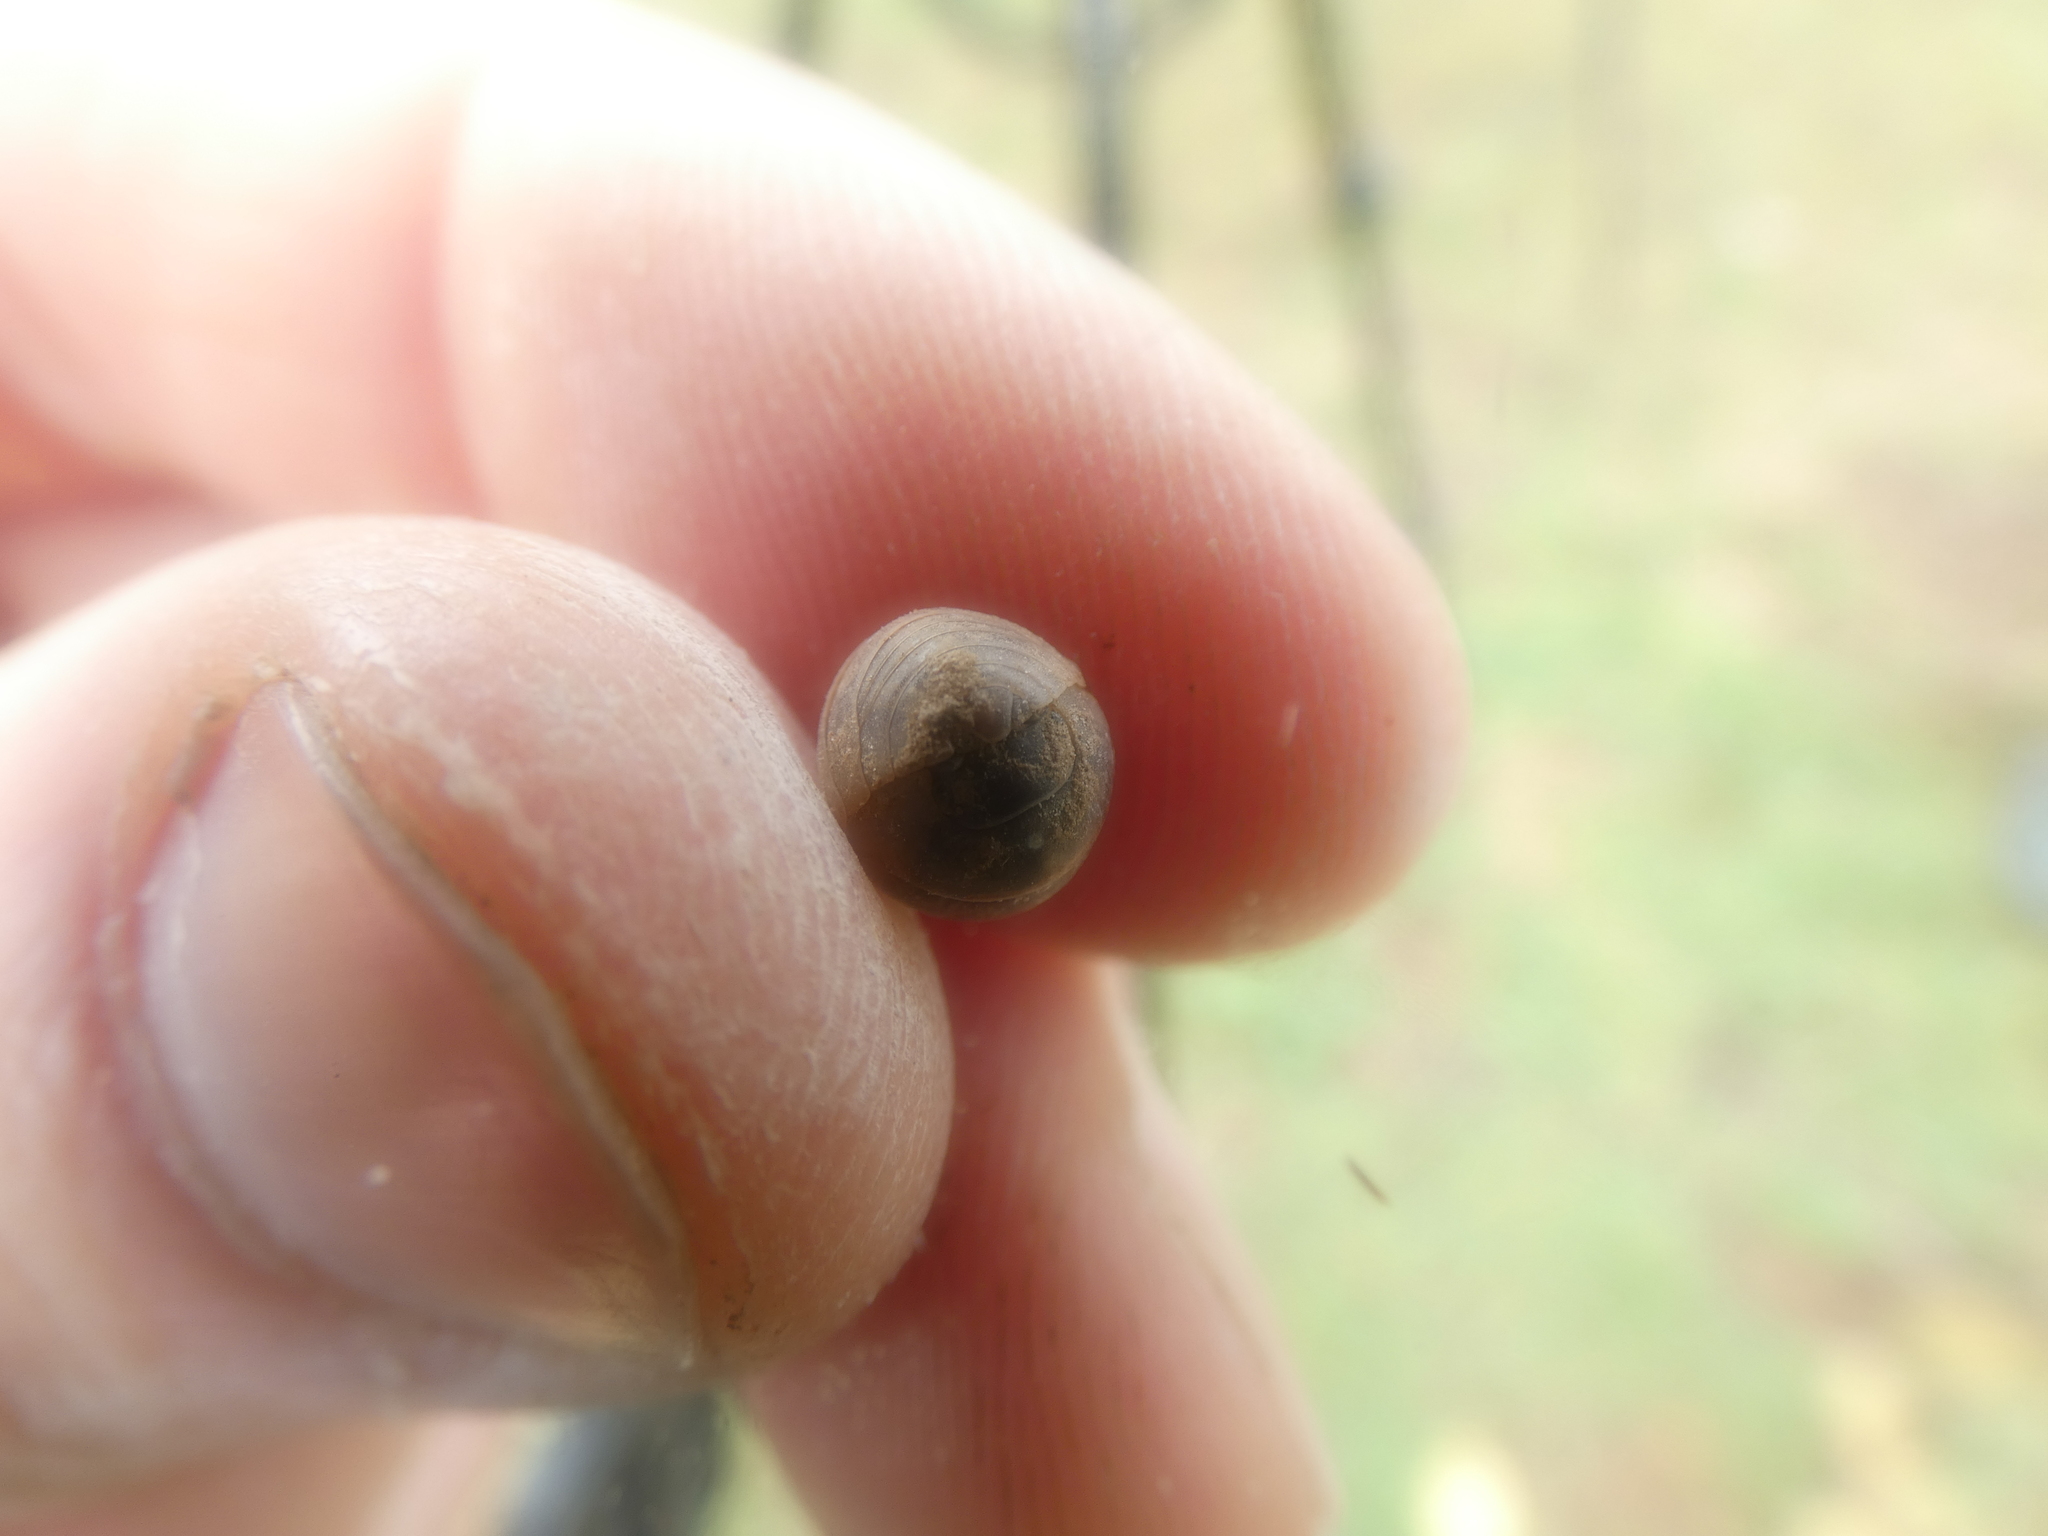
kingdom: Animalia
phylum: Arthropoda
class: Malacostraca
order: Isopoda
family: Armadillidiidae
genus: Armadillidium
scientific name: Armadillidium vulgare
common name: Common pill woodlouse
